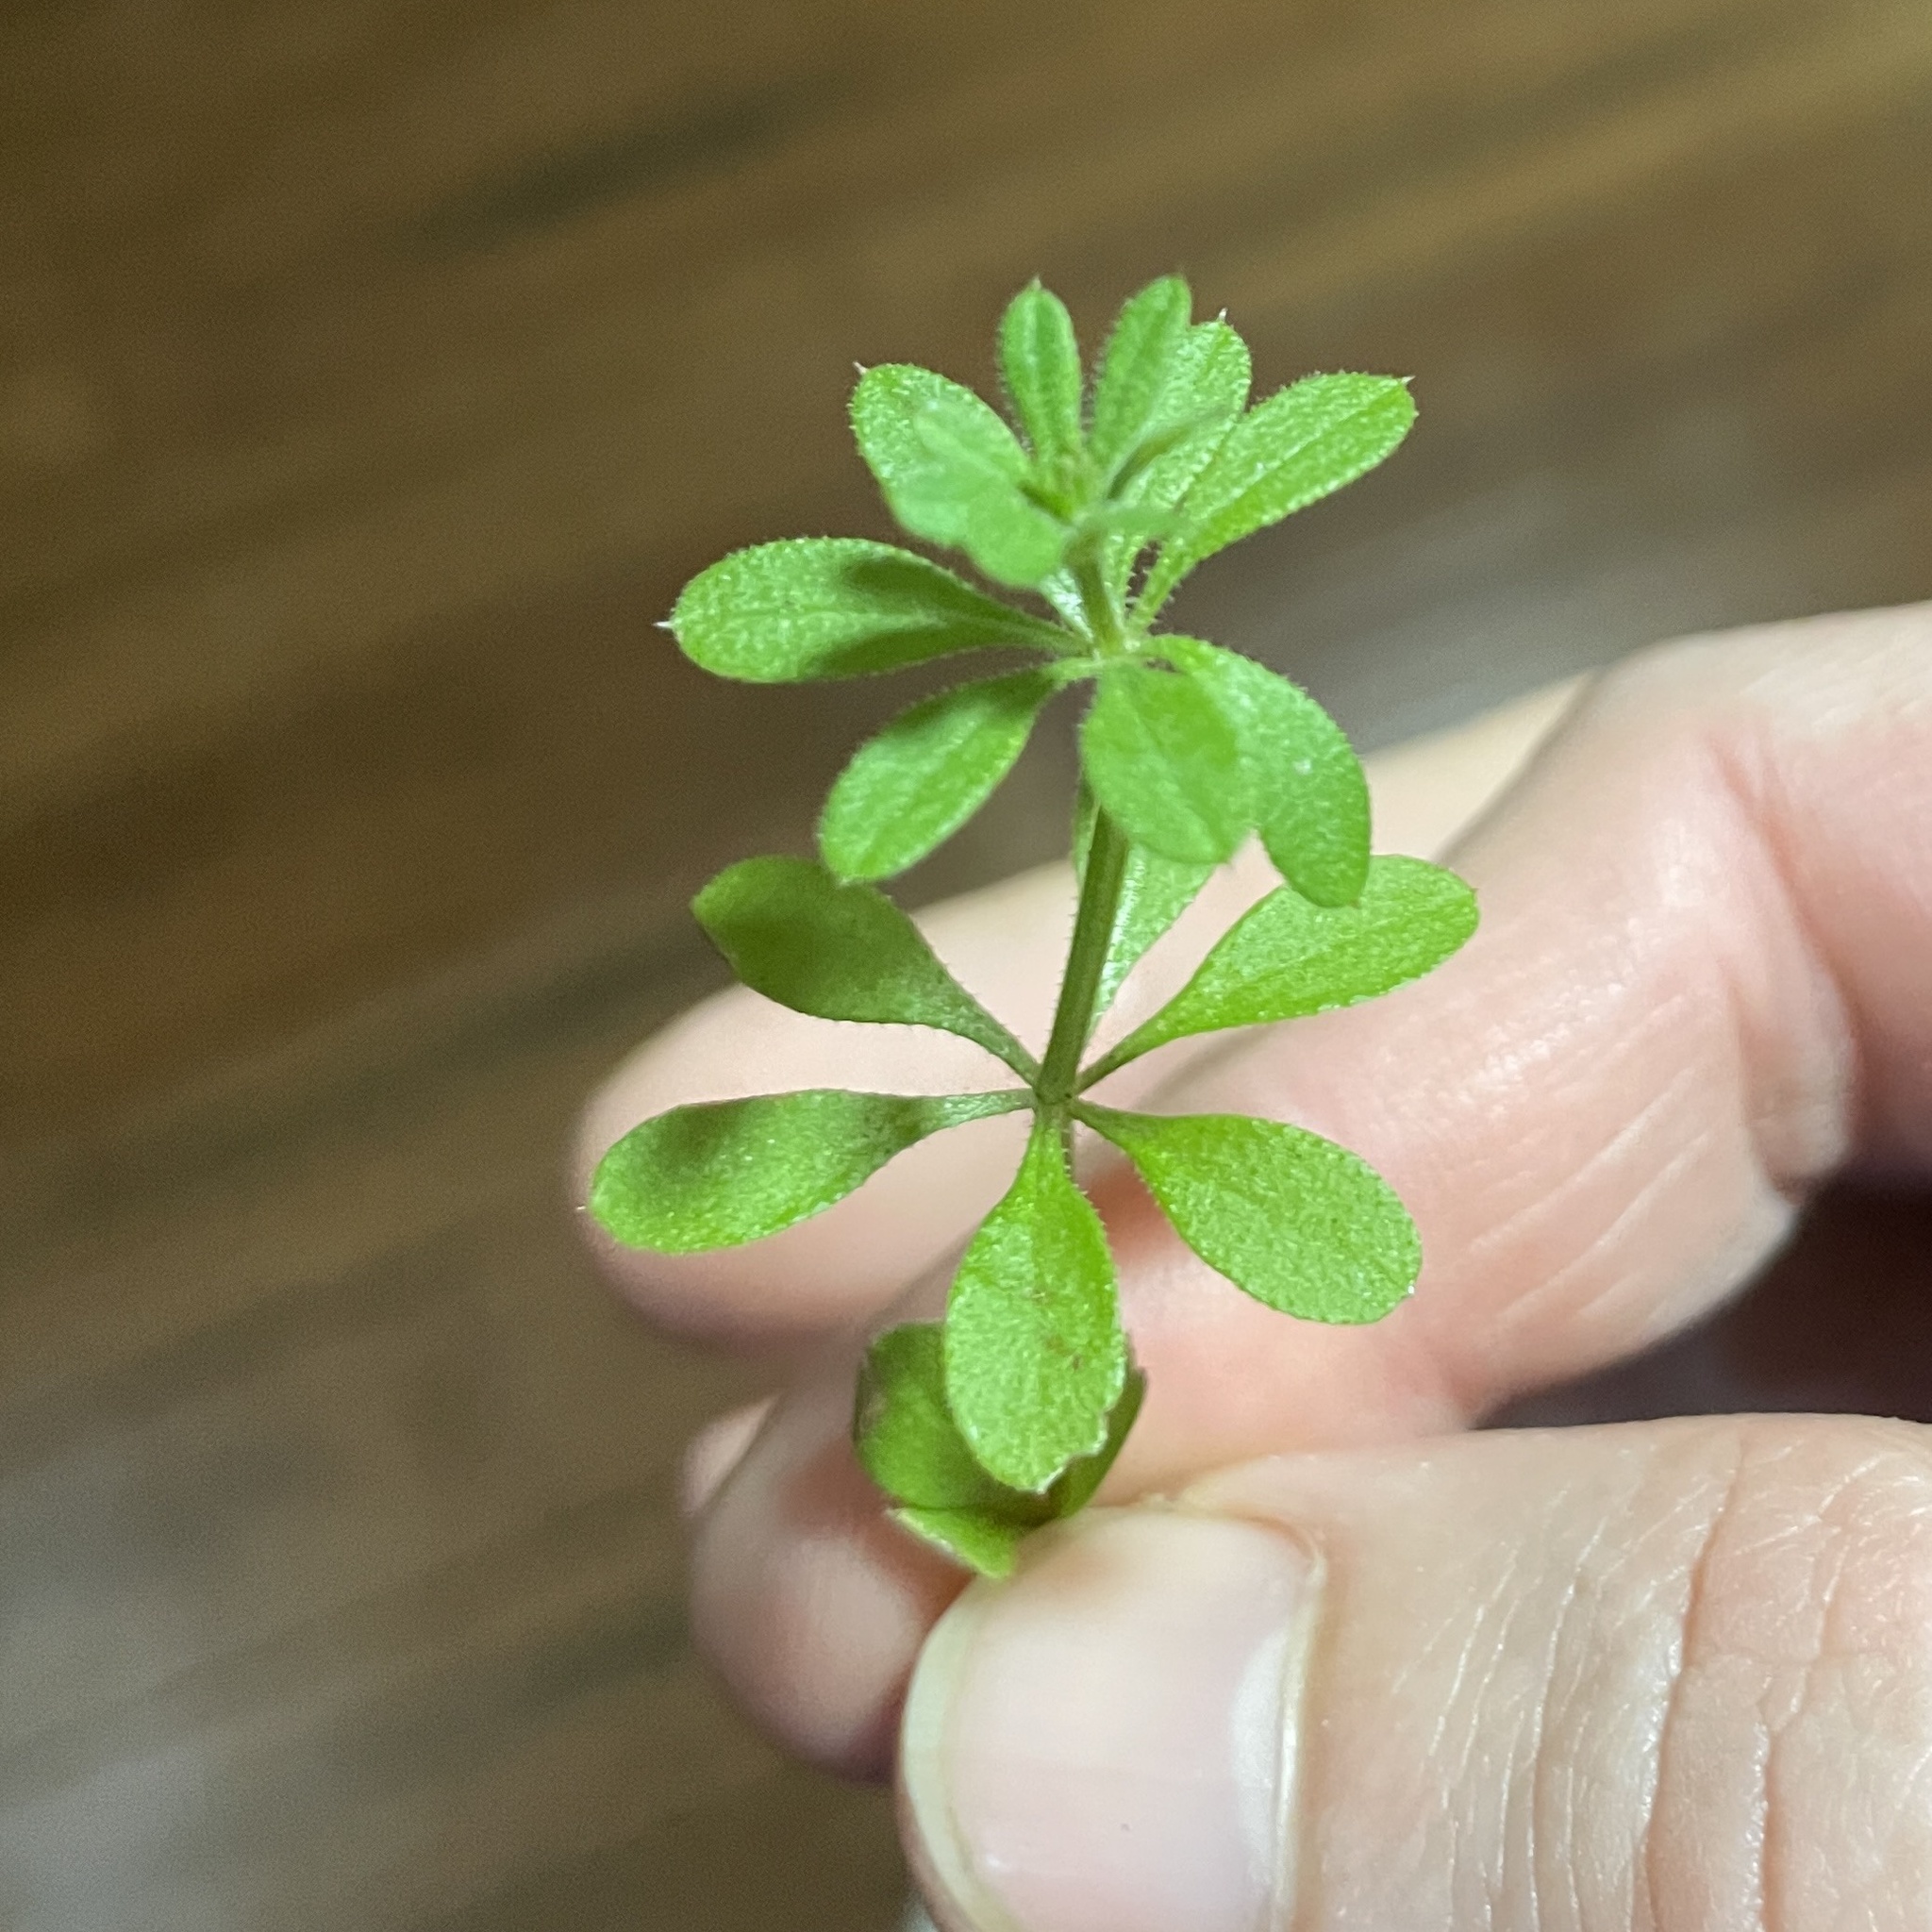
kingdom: Plantae
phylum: Tracheophyta
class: Magnoliopsida
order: Gentianales
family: Rubiaceae
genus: Galium
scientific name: Galium aparine
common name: Cleavers
